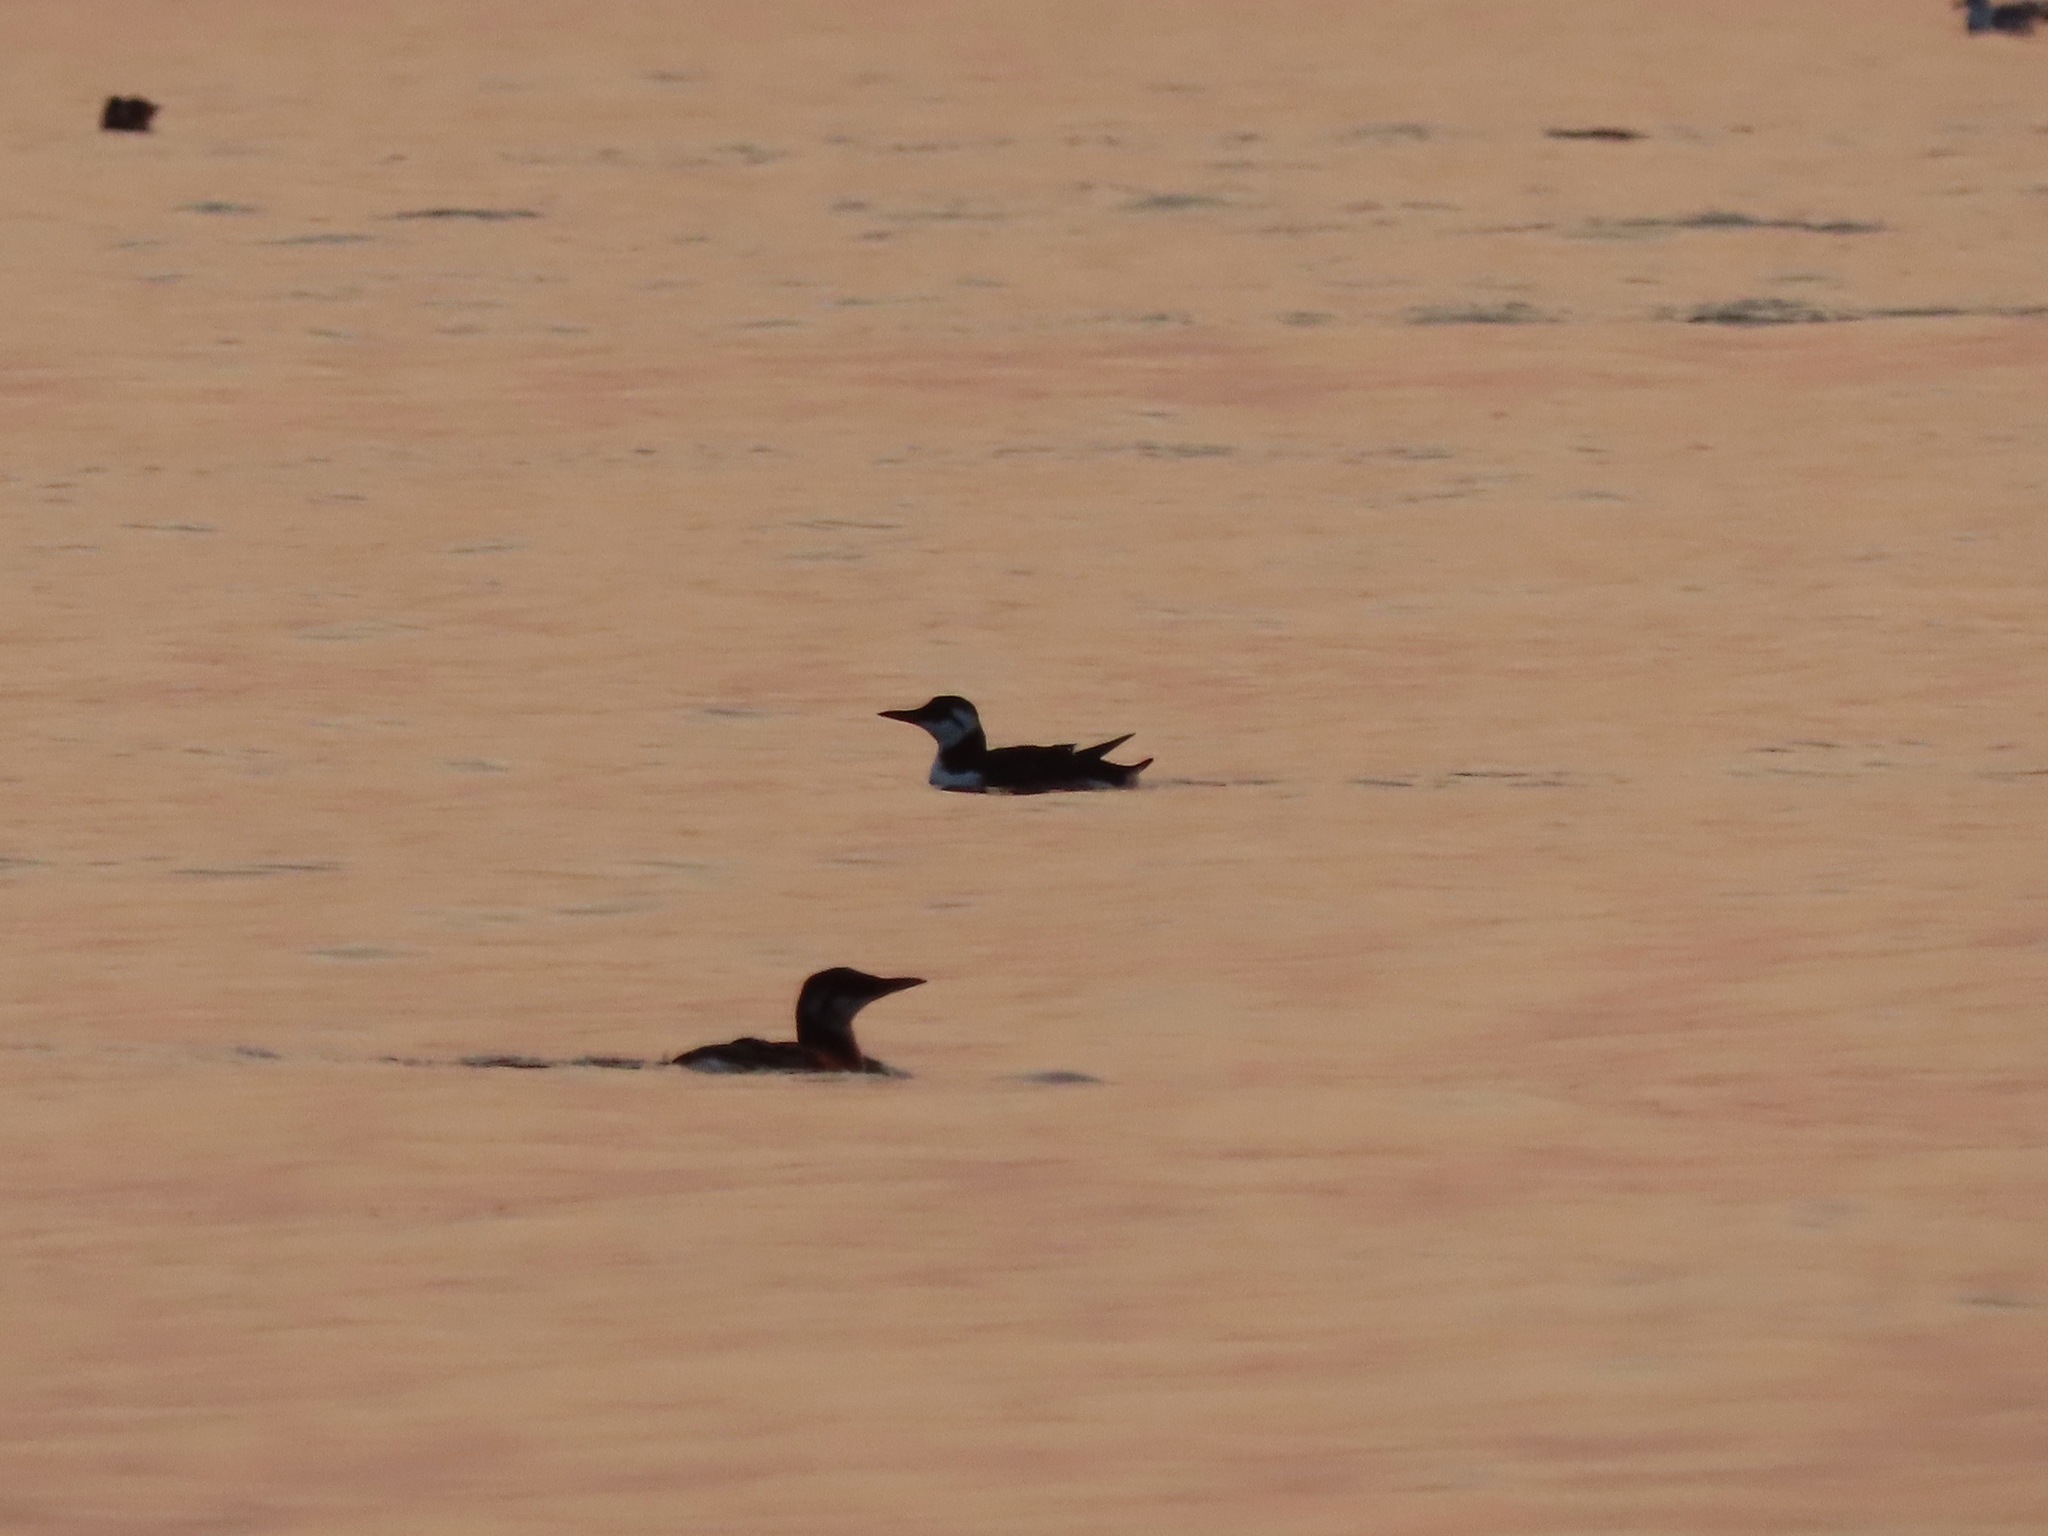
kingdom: Animalia
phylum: Chordata
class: Aves
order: Charadriiformes
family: Alcidae
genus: Uria
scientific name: Uria aalge
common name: Common murre
